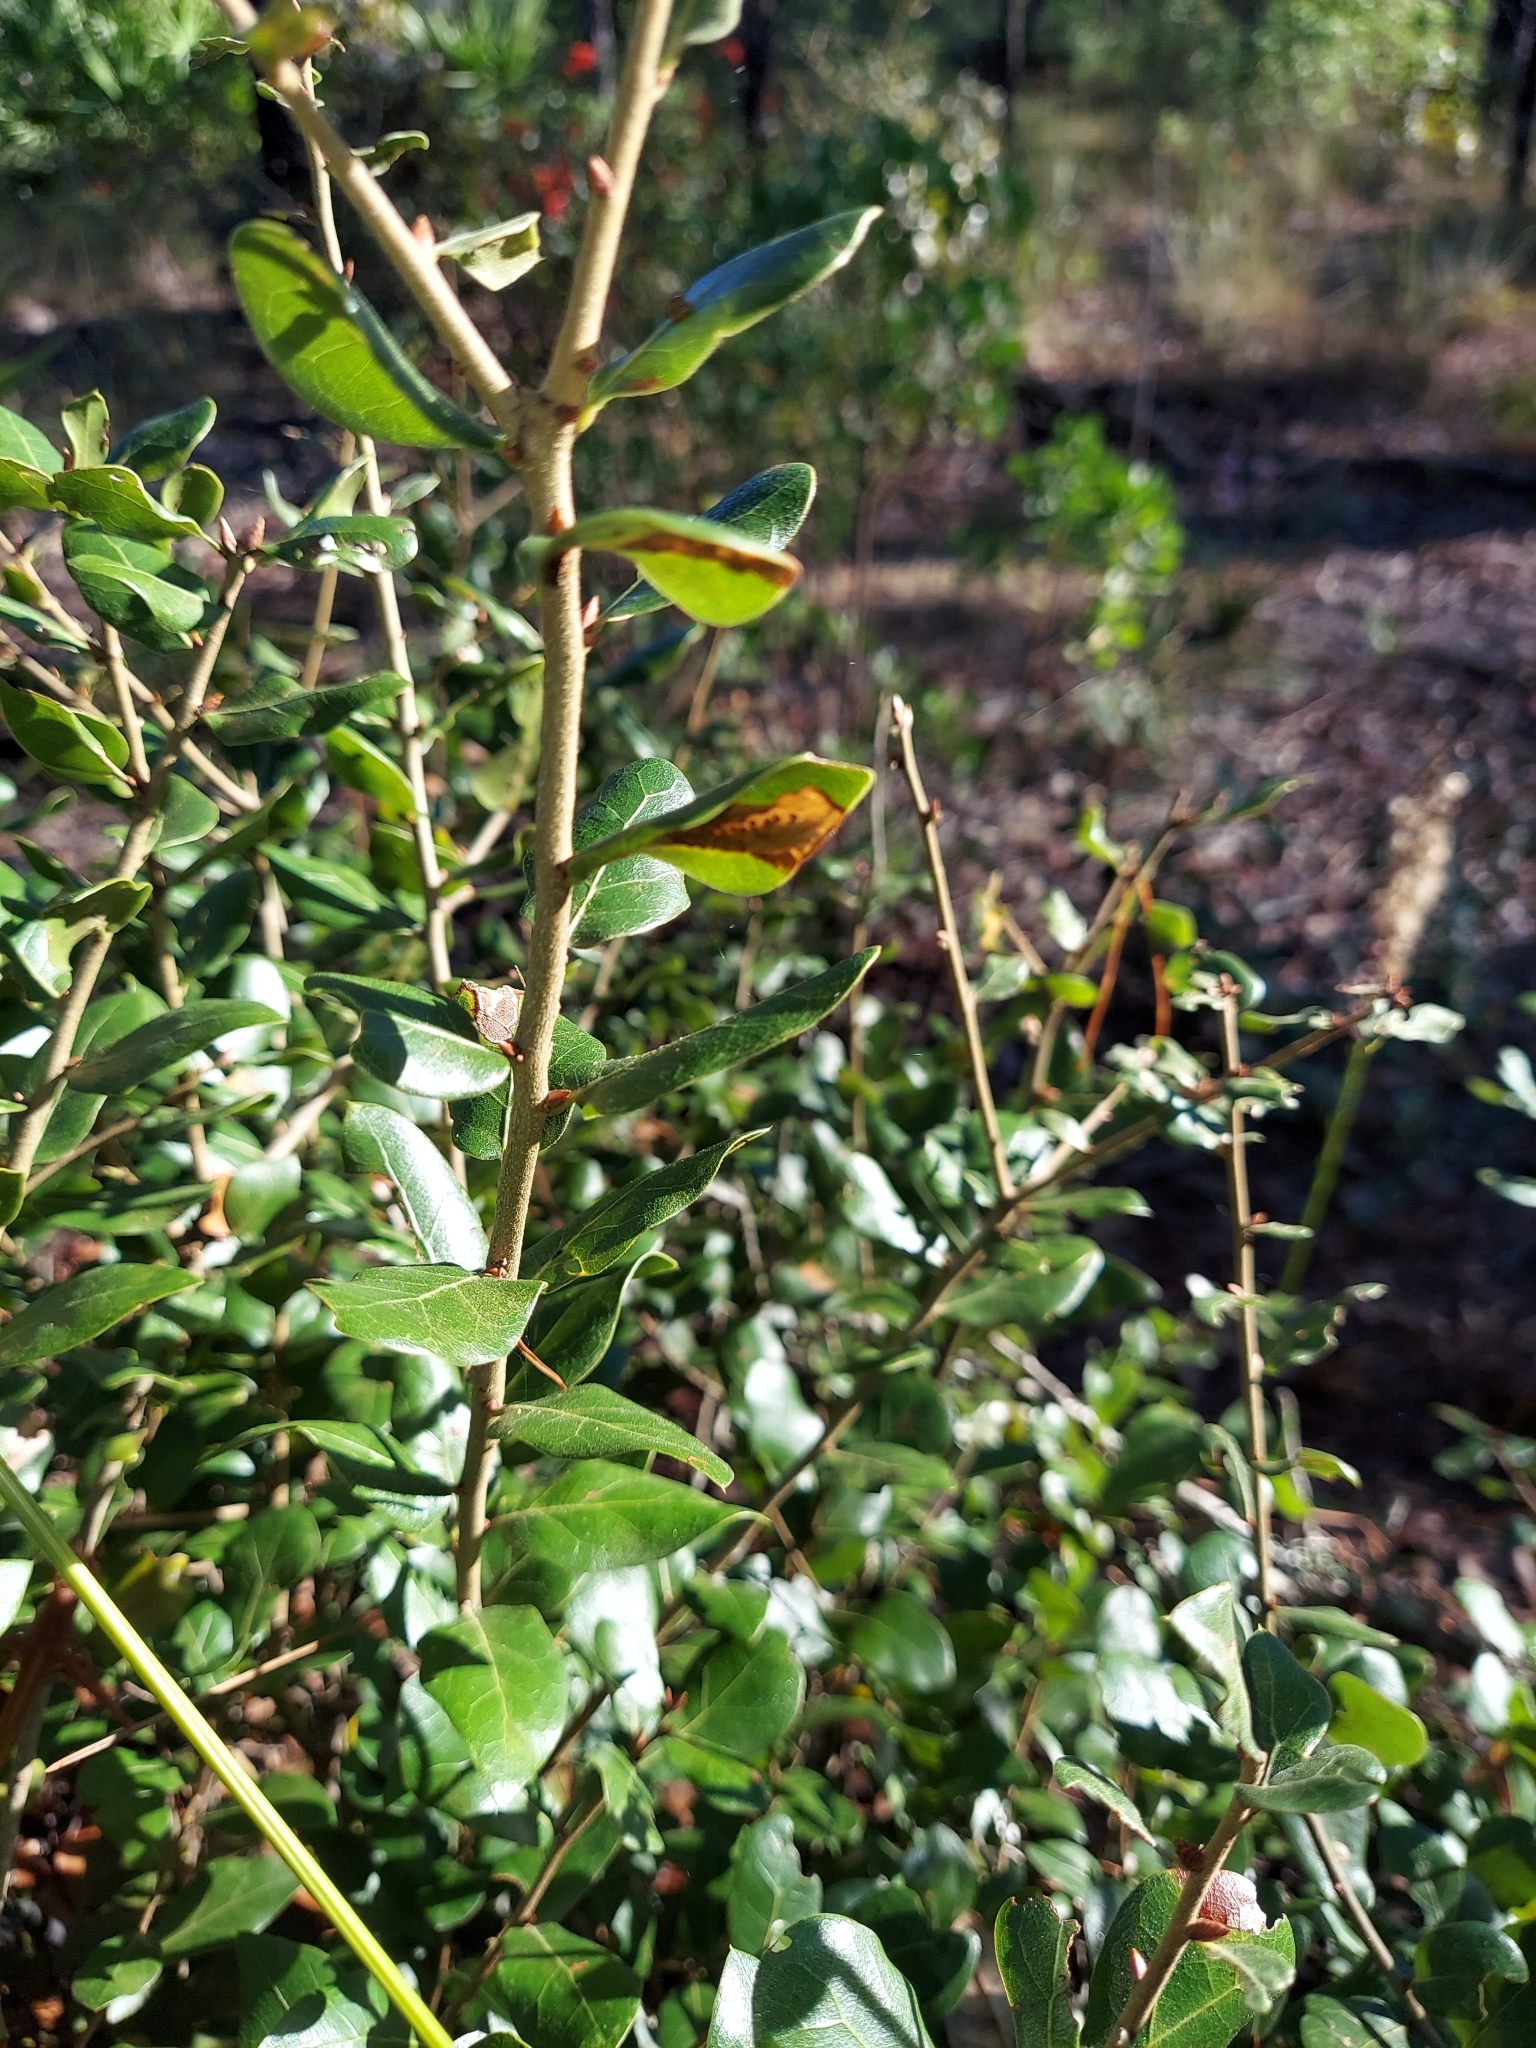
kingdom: Plantae
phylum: Tracheophyta
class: Magnoliopsida
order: Fagales
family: Fagaceae
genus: Quercus
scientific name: Quercus myrtifolia
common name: Myrtle oak
